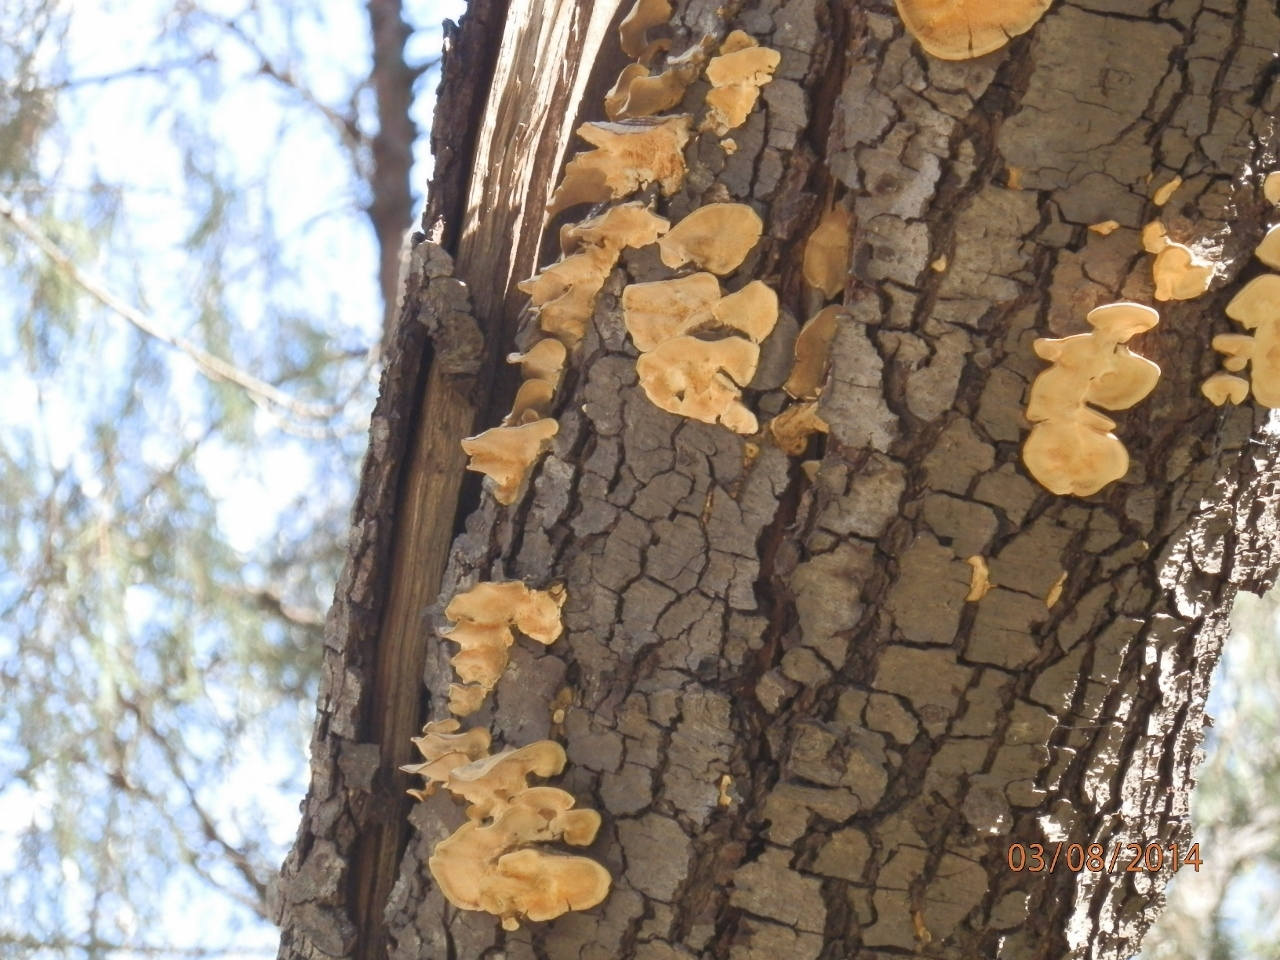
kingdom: Fungi
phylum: Basidiomycota
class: Agaricomycetes
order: Russulales
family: Stereaceae
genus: Stereum
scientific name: Stereum hirsutum
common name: Hairy curtain crust
